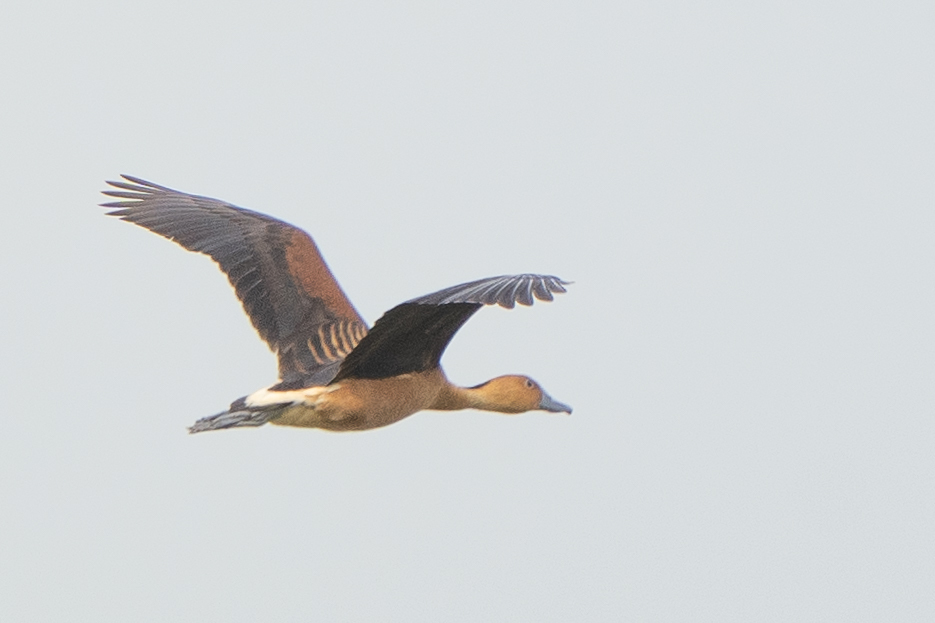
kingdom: Animalia
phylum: Chordata
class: Aves
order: Anseriformes
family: Anatidae
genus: Dendrocygna
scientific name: Dendrocygna bicolor
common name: Fulvous whistling duck
